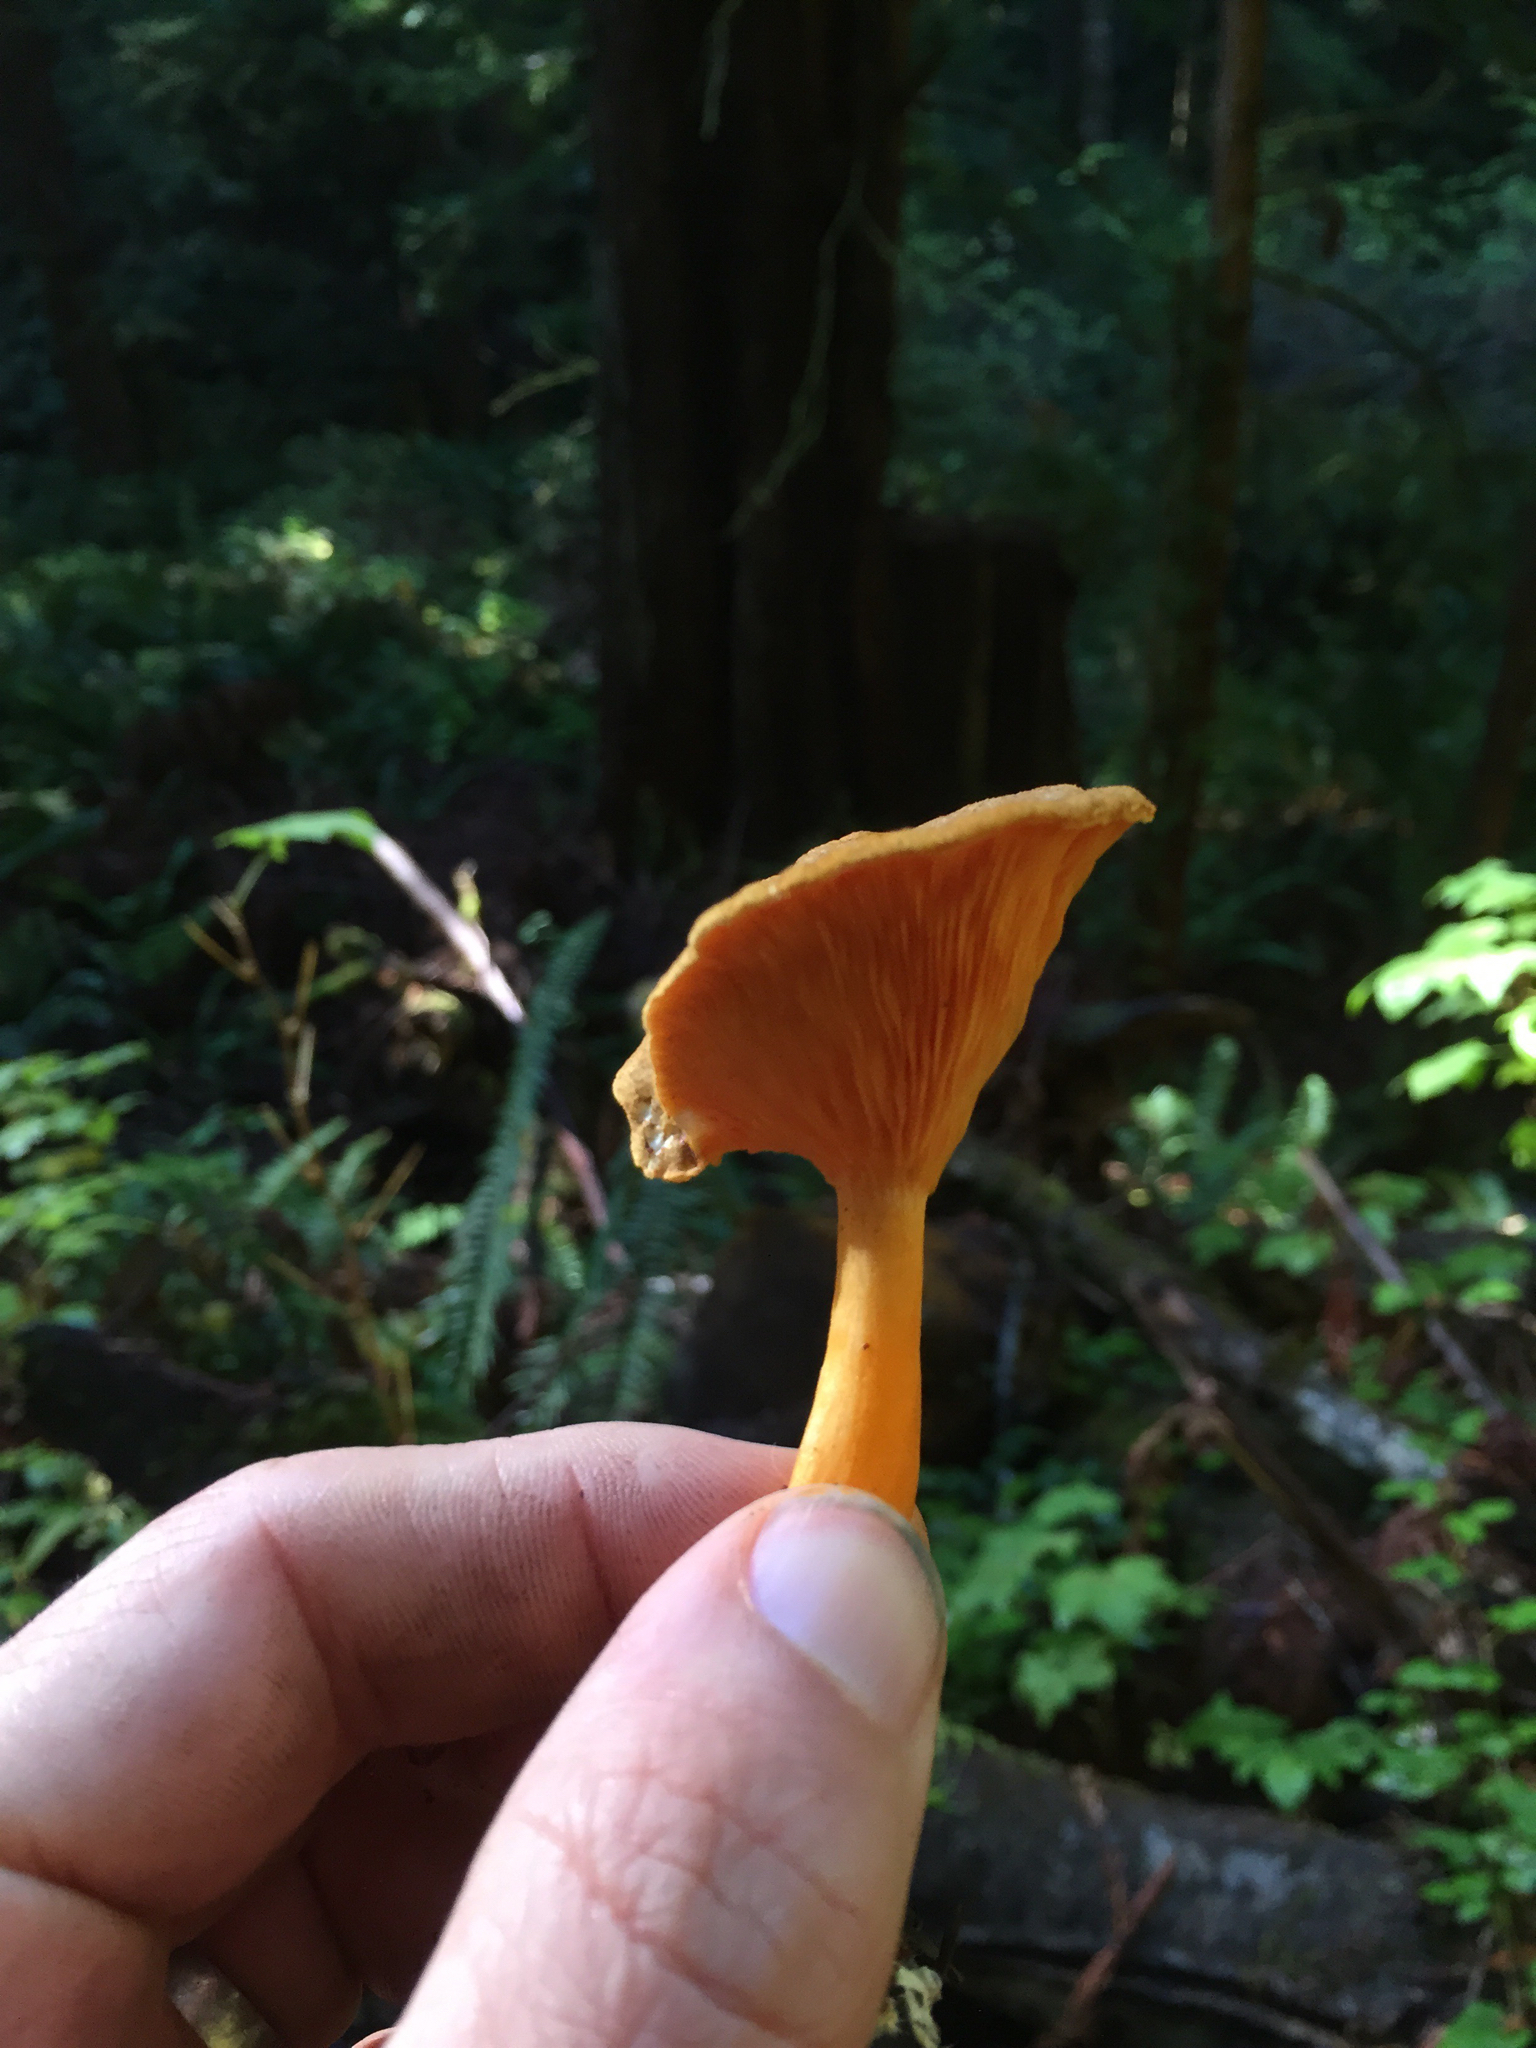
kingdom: Fungi
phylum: Basidiomycota
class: Agaricomycetes
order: Boletales
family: Hygrophoropsidaceae
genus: Hygrophoropsis
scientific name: Hygrophoropsis aurantiaca
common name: False chanterelle
